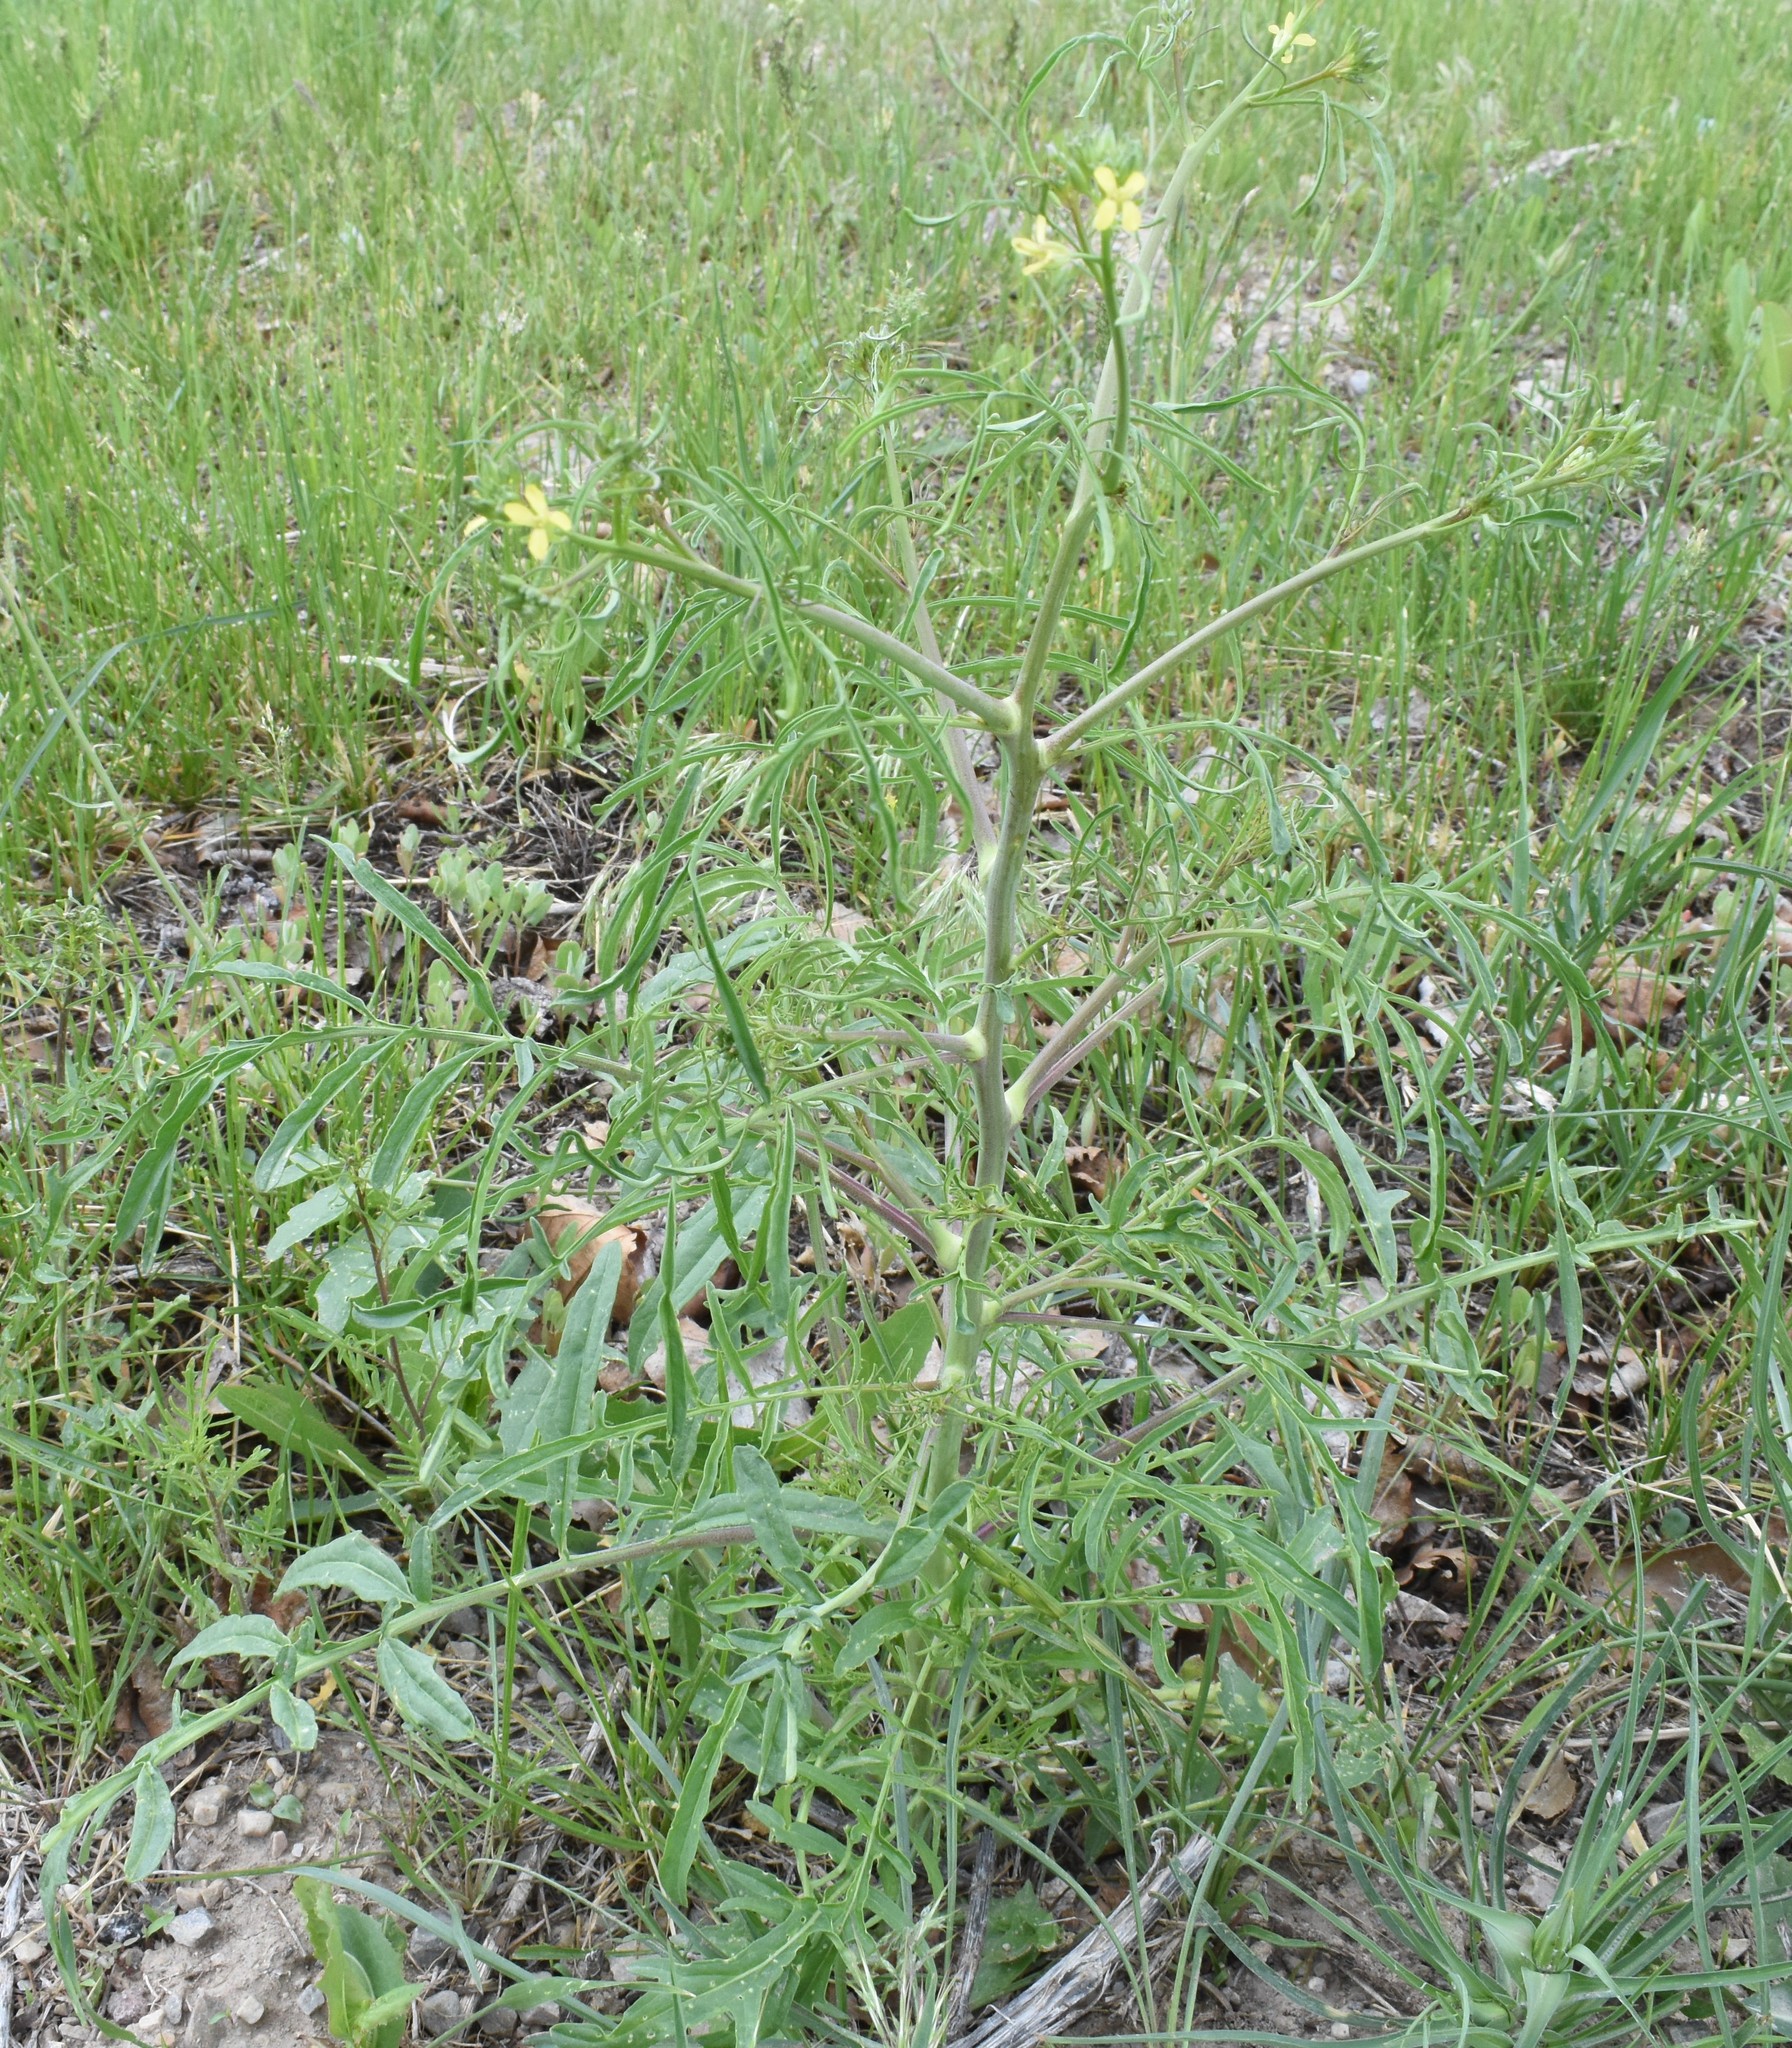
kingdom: Plantae
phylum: Tracheophyta
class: Magnoliopsida
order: Brassicales
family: Brassicaceae
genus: Sisymbrium
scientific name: Sisymbrium altissimum
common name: Tall rocket
